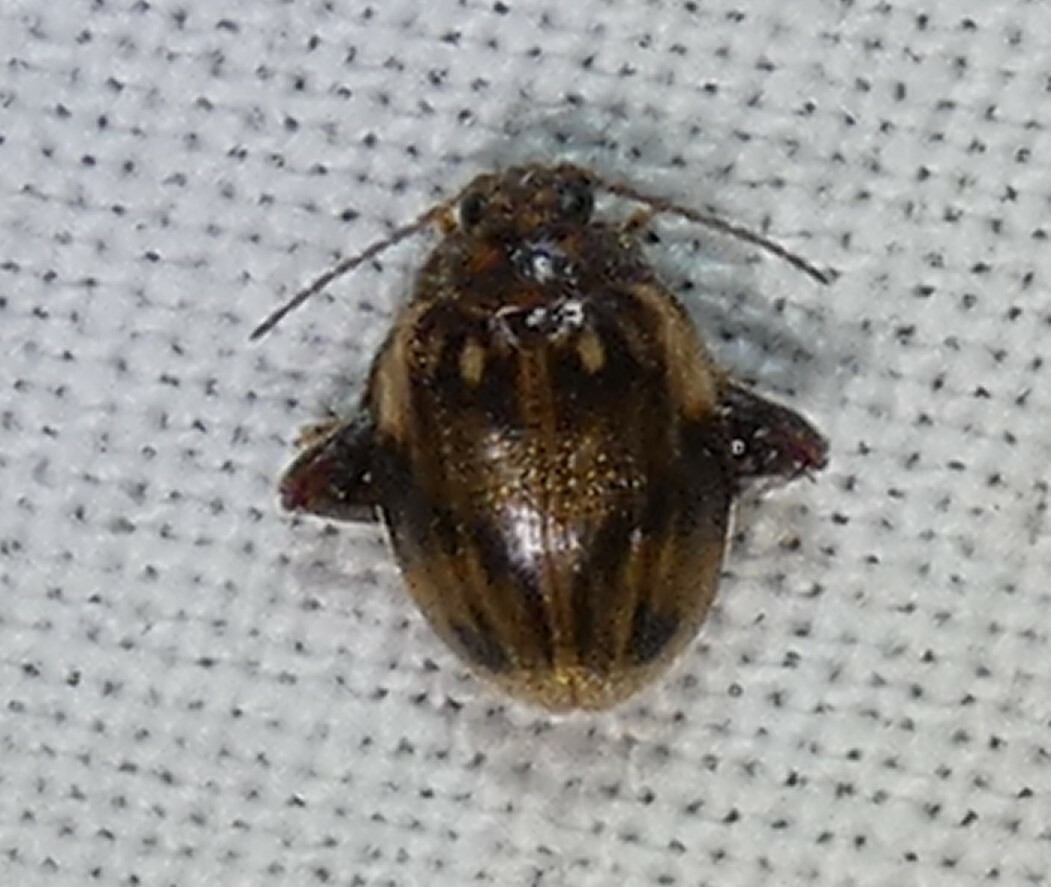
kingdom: Animalia
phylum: Arthropoda
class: Insecta
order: Coleoptera
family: Scirtidae
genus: Ora
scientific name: Ora texana
